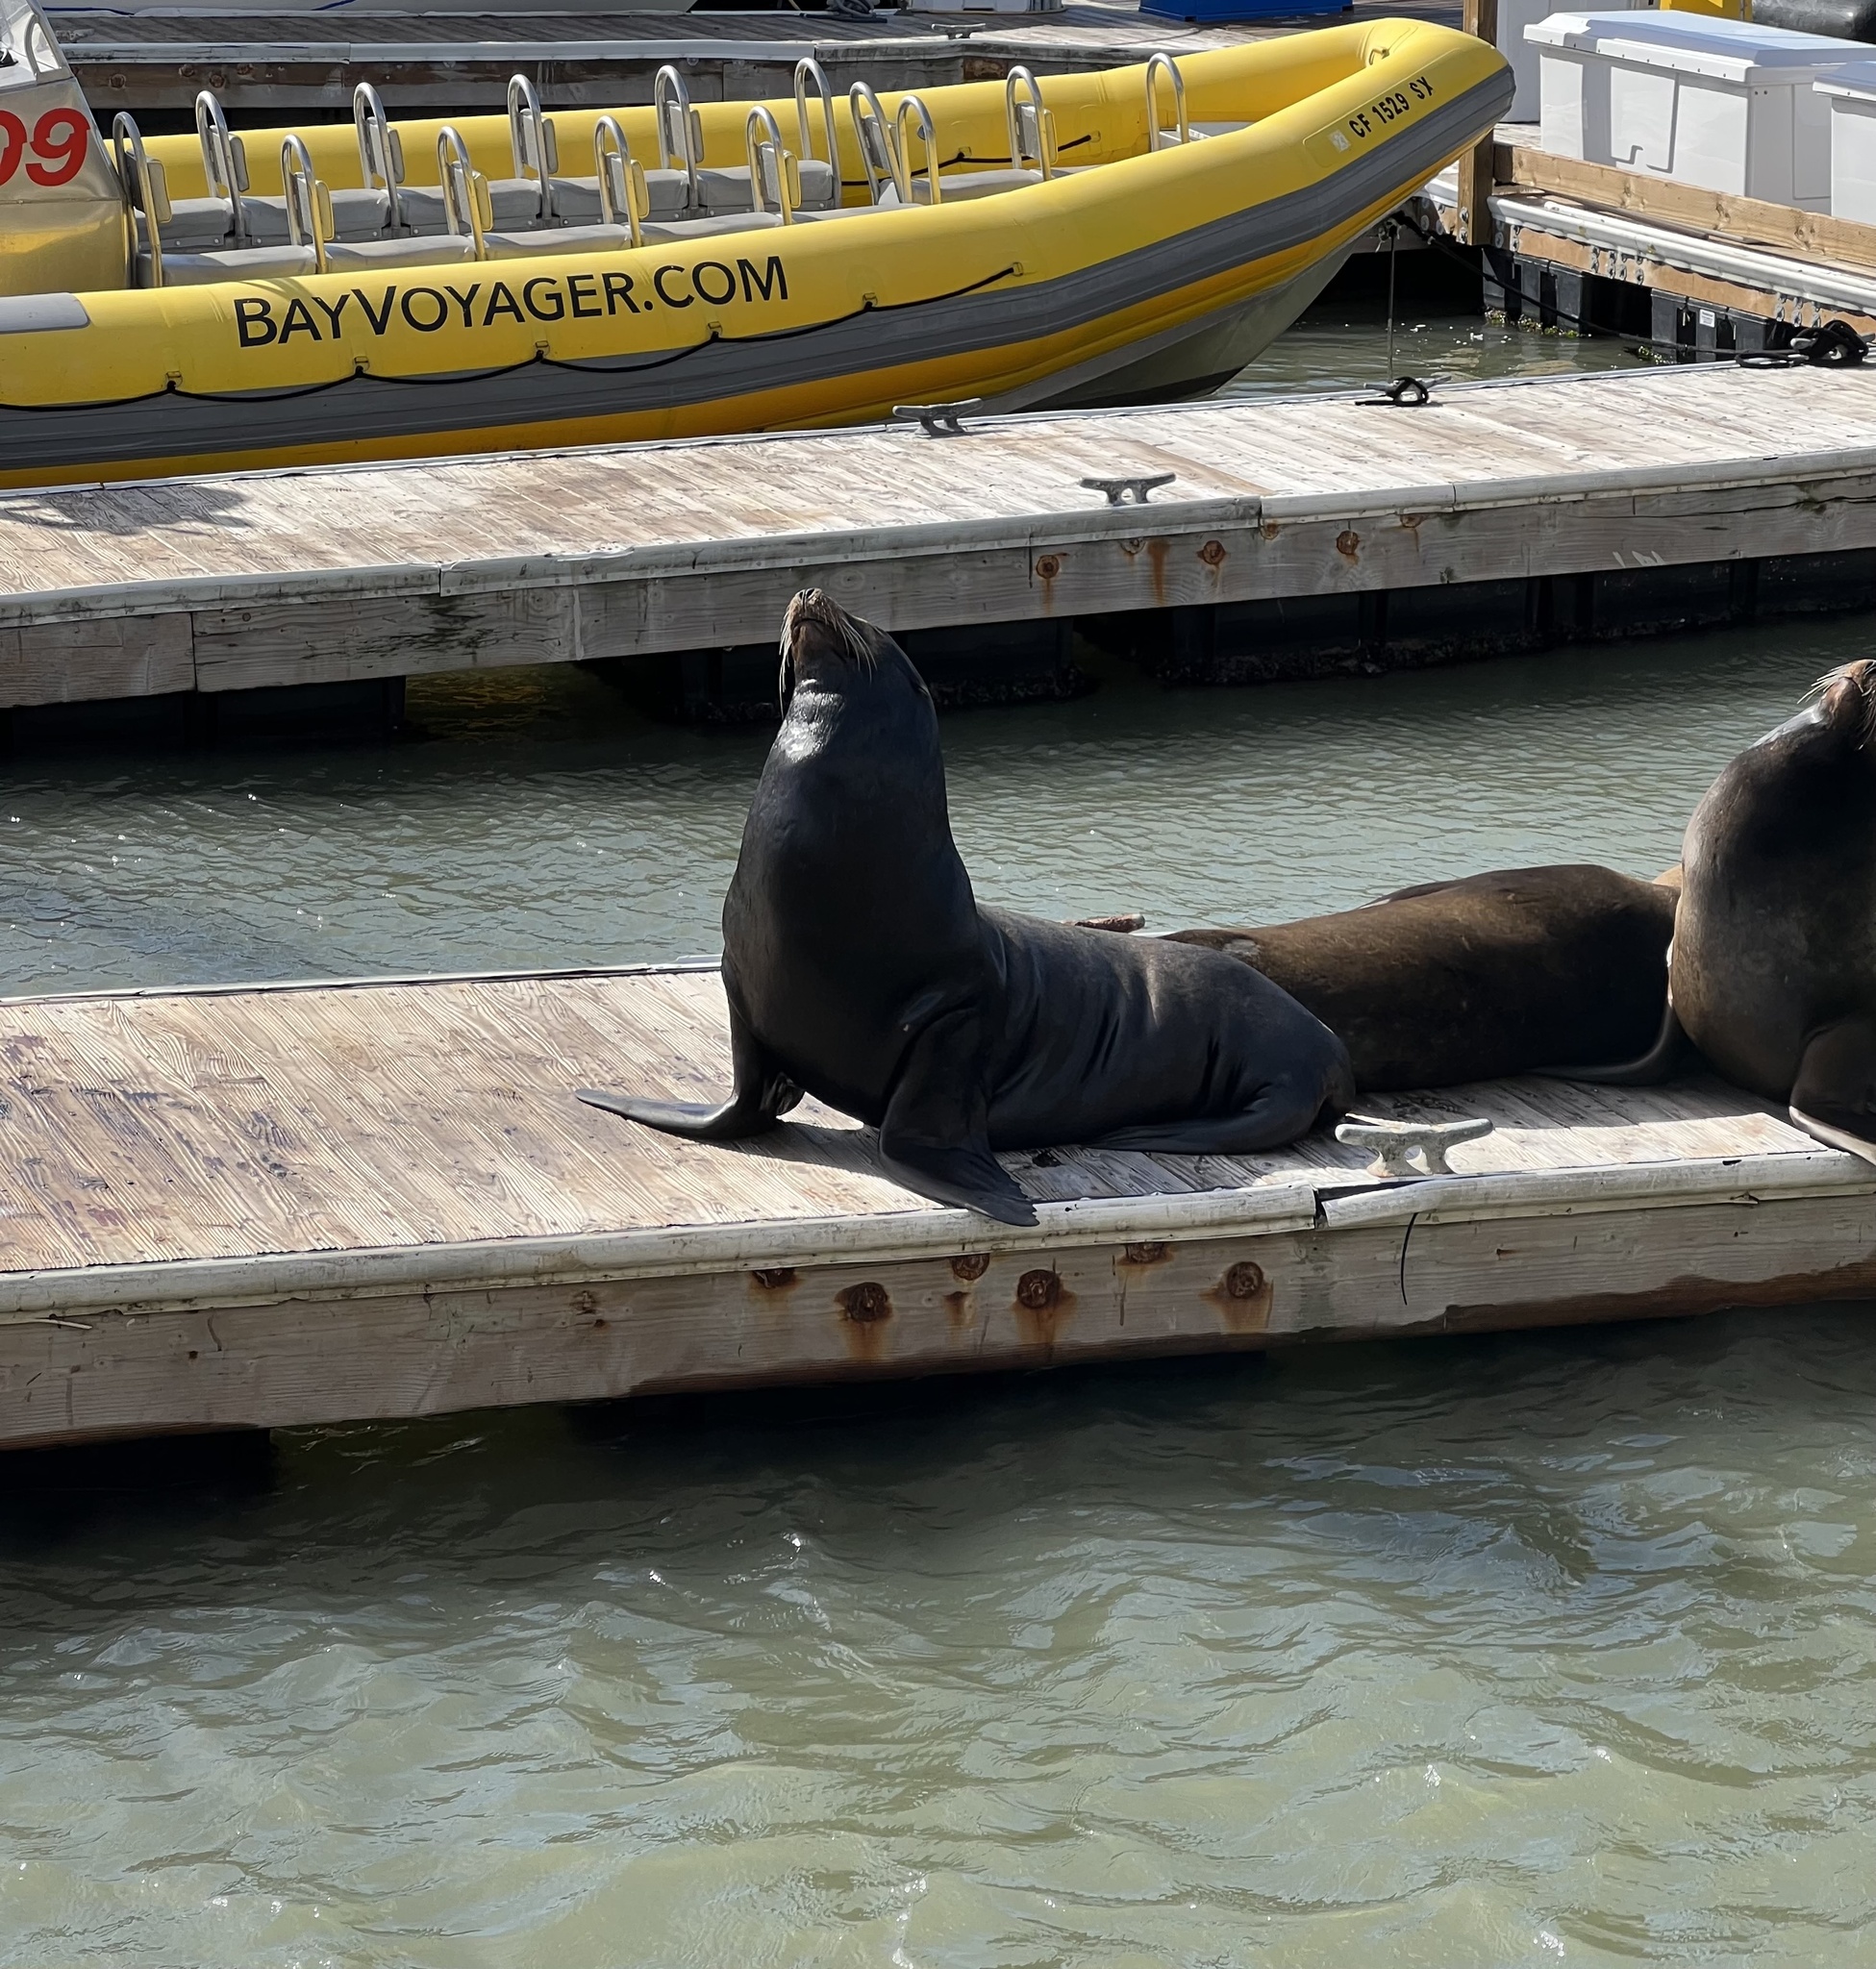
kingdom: Animalia
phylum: Chordata
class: Mammalia
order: Carnivora
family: Otariidae
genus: Zalophus
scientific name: Zalophus californianus
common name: California sea lion
